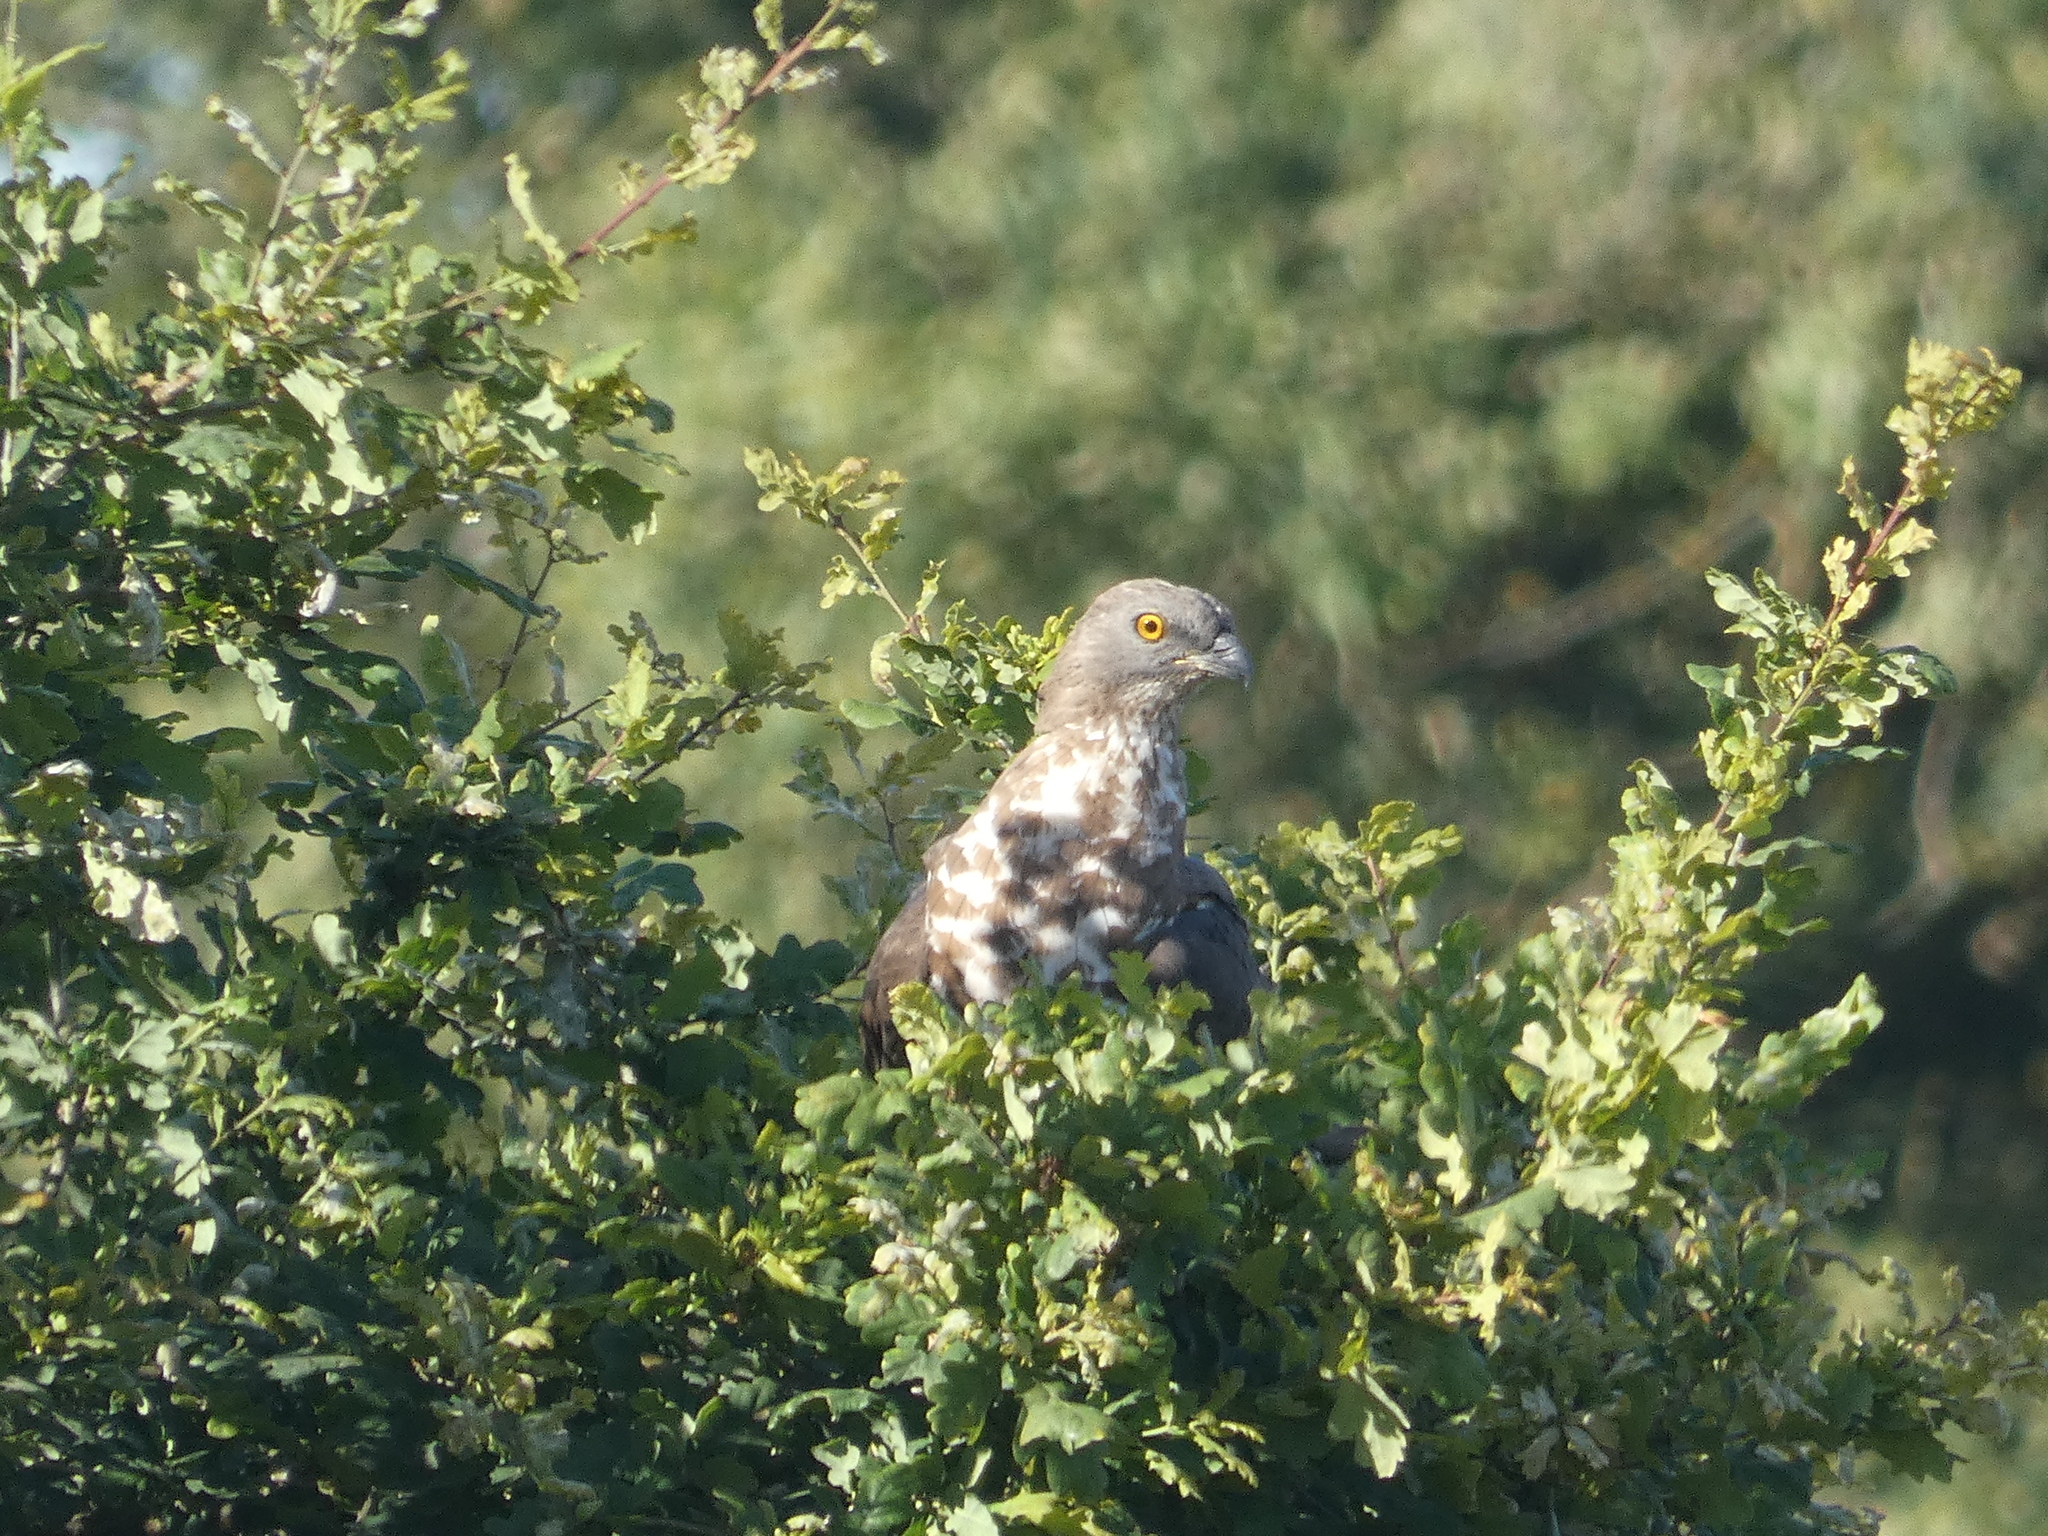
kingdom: Animalia
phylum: Chordata
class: Aves
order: Accipitriformes
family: Accipitridae
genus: Pernis
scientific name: Pernis apivorus
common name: European honey buzzard
